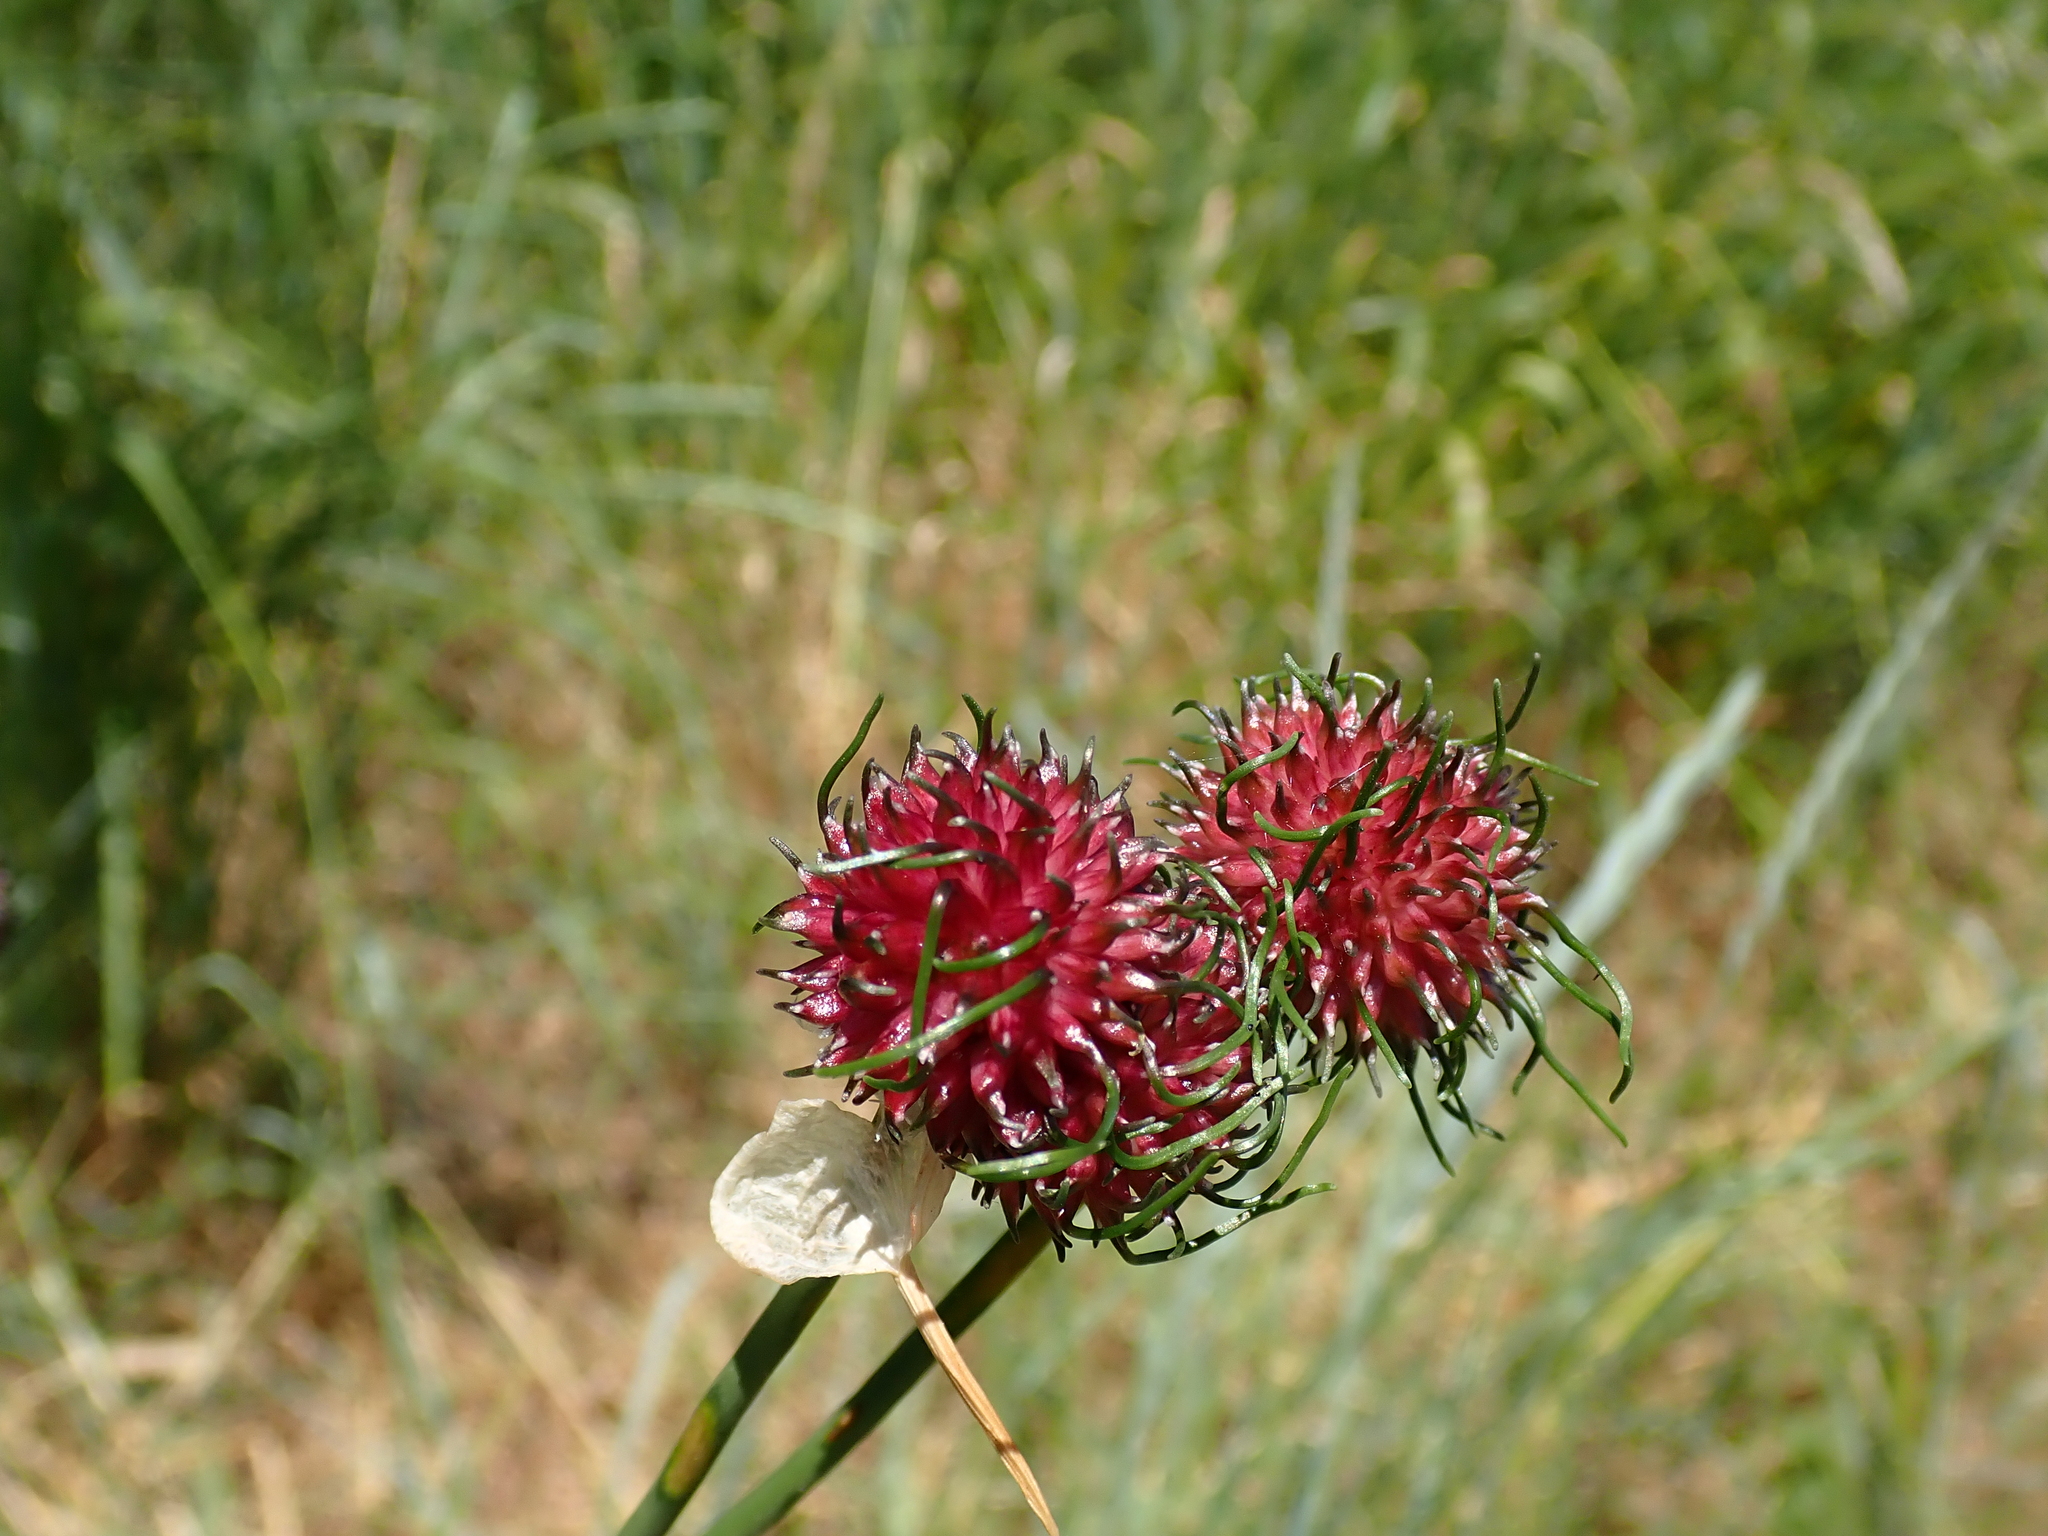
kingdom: Plantae
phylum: Tracheophyta
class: Liliopsida
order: Asparagales
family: Amaryllidaceae
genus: Allium
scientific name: Allium vineale
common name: Crow garlic
